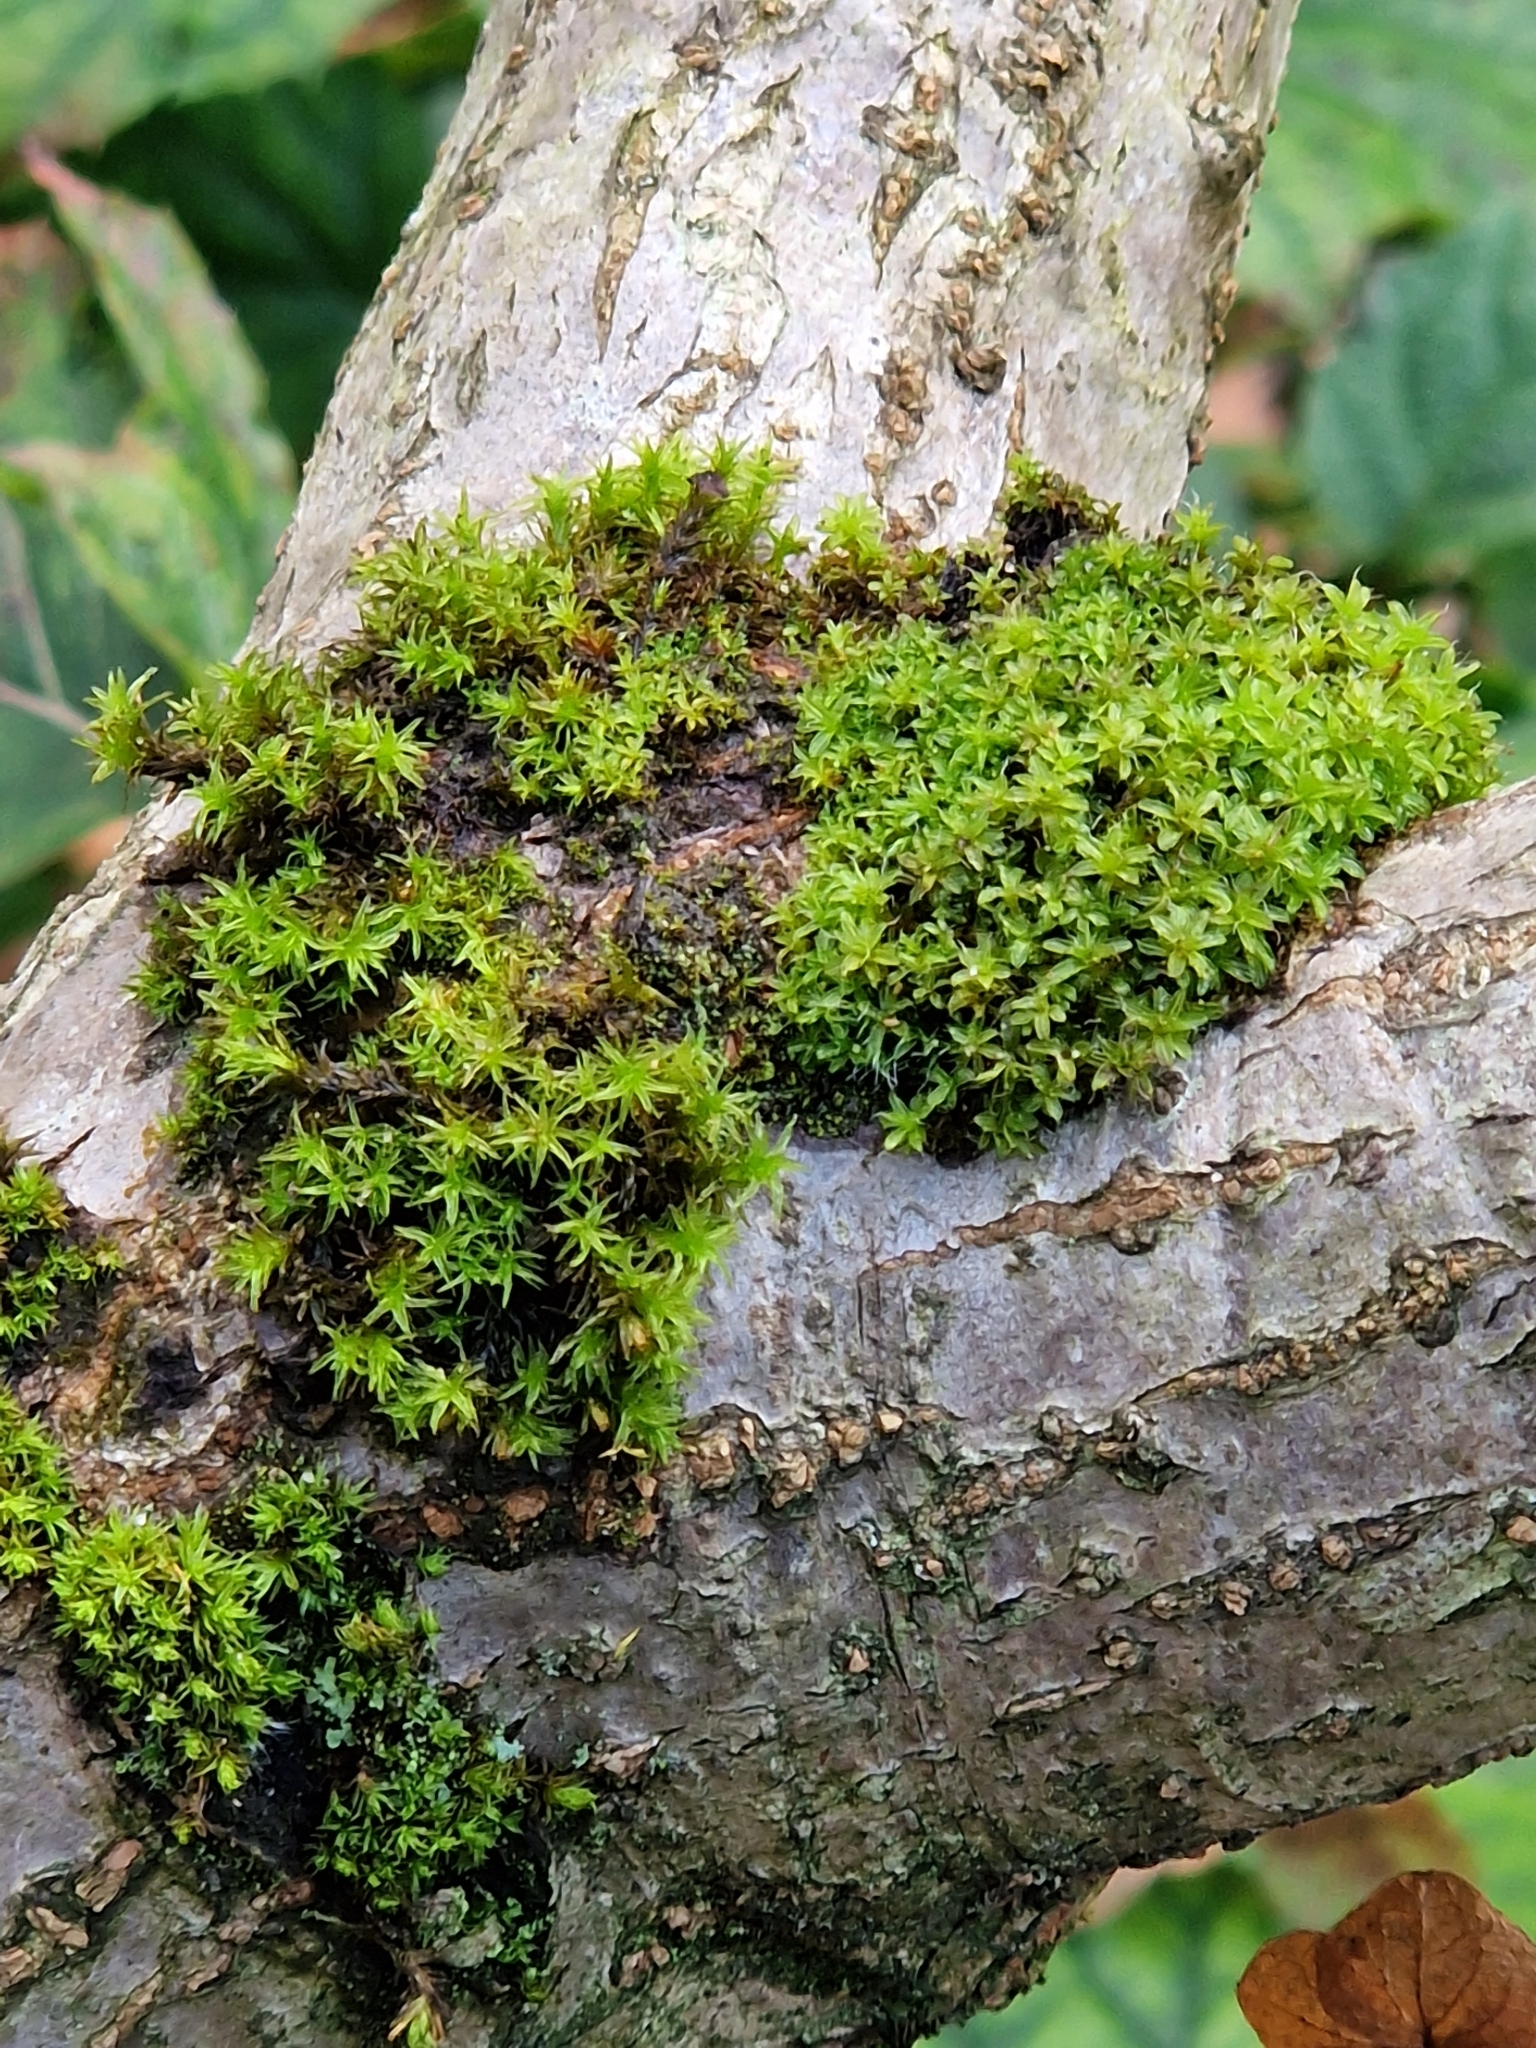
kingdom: Plantae
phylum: Bryophyta
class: Bryopsida
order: Pottiales
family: Pottiaceae
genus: Syntrichia
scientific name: Syntrichia ruralis
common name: Sidewalk screw moss
